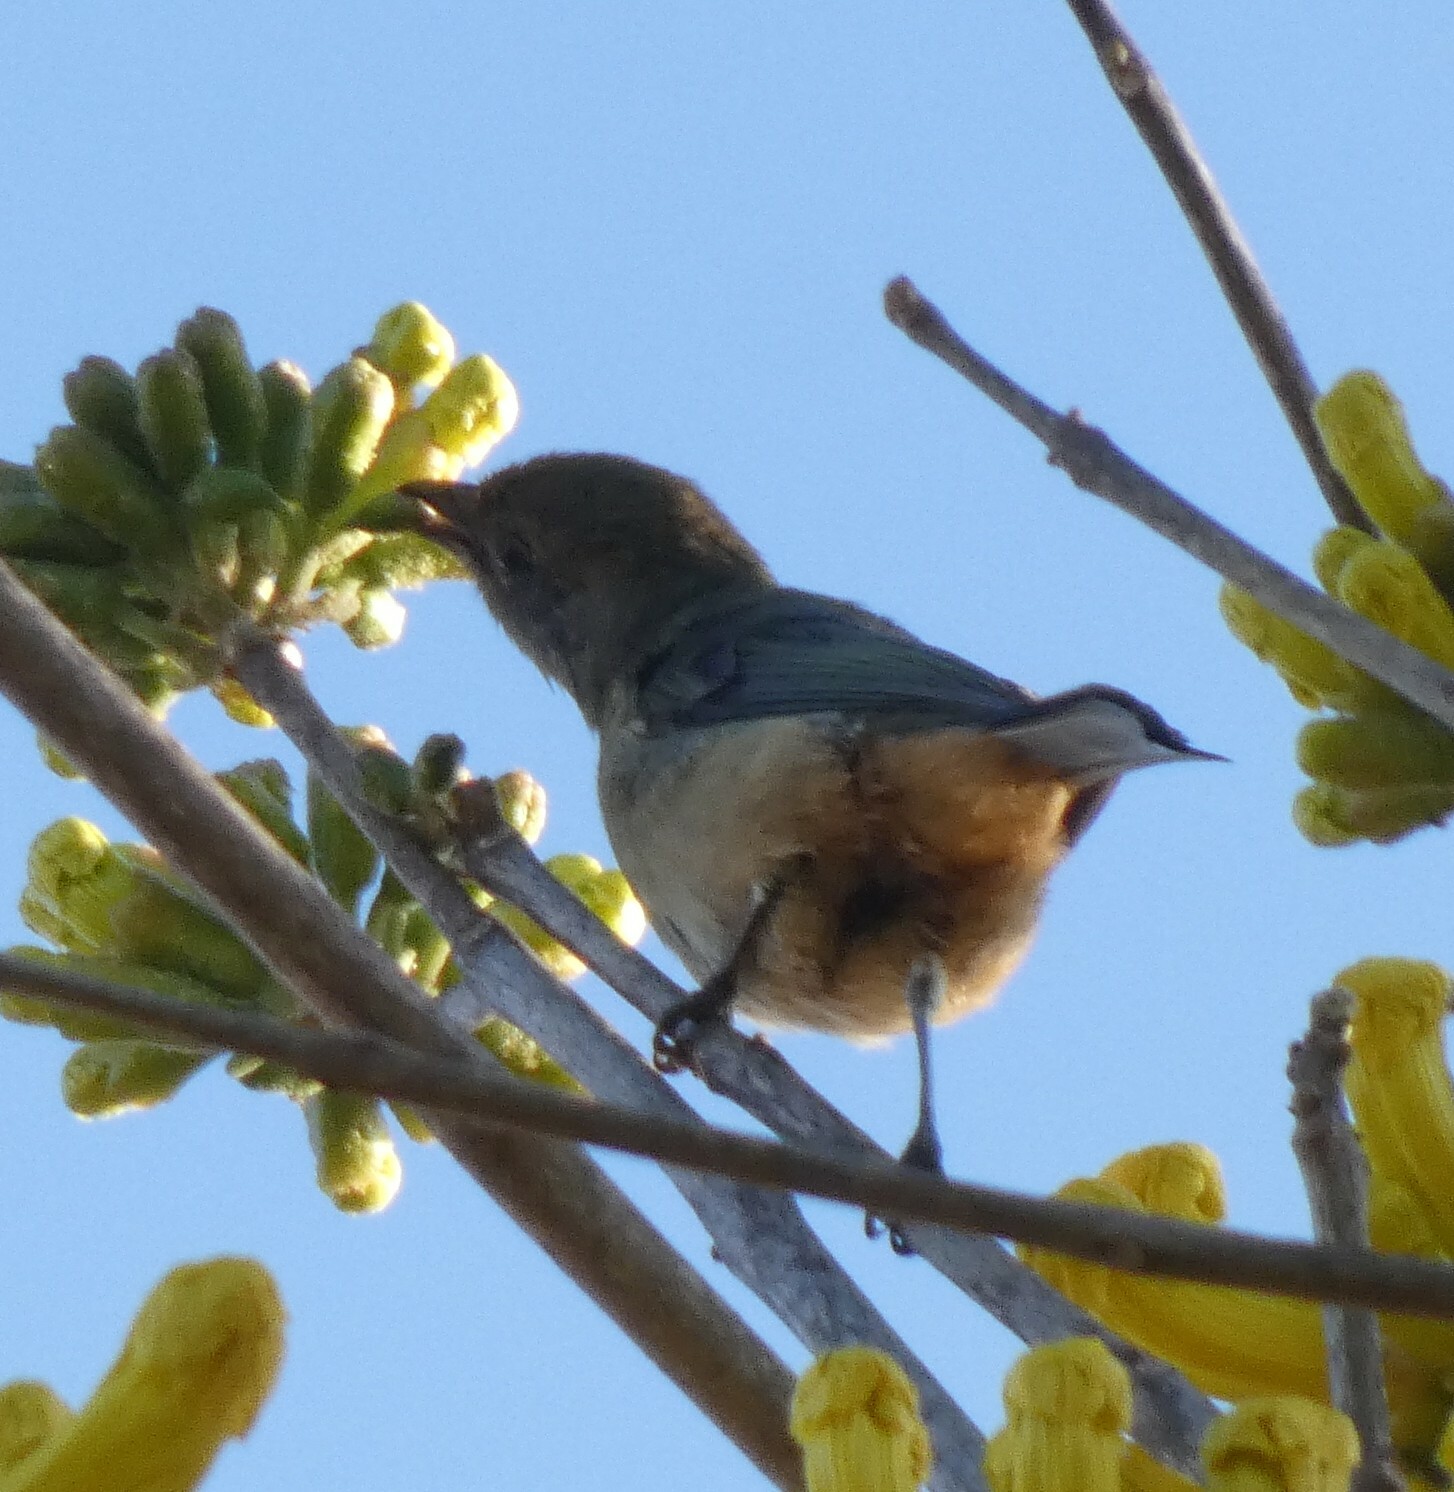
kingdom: Animalia
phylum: Chordata
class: Aves
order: Passeriformes
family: Thraupidae
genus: Stilpnia
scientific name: Stilpnia cayana
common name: Burnished-buff tanager
